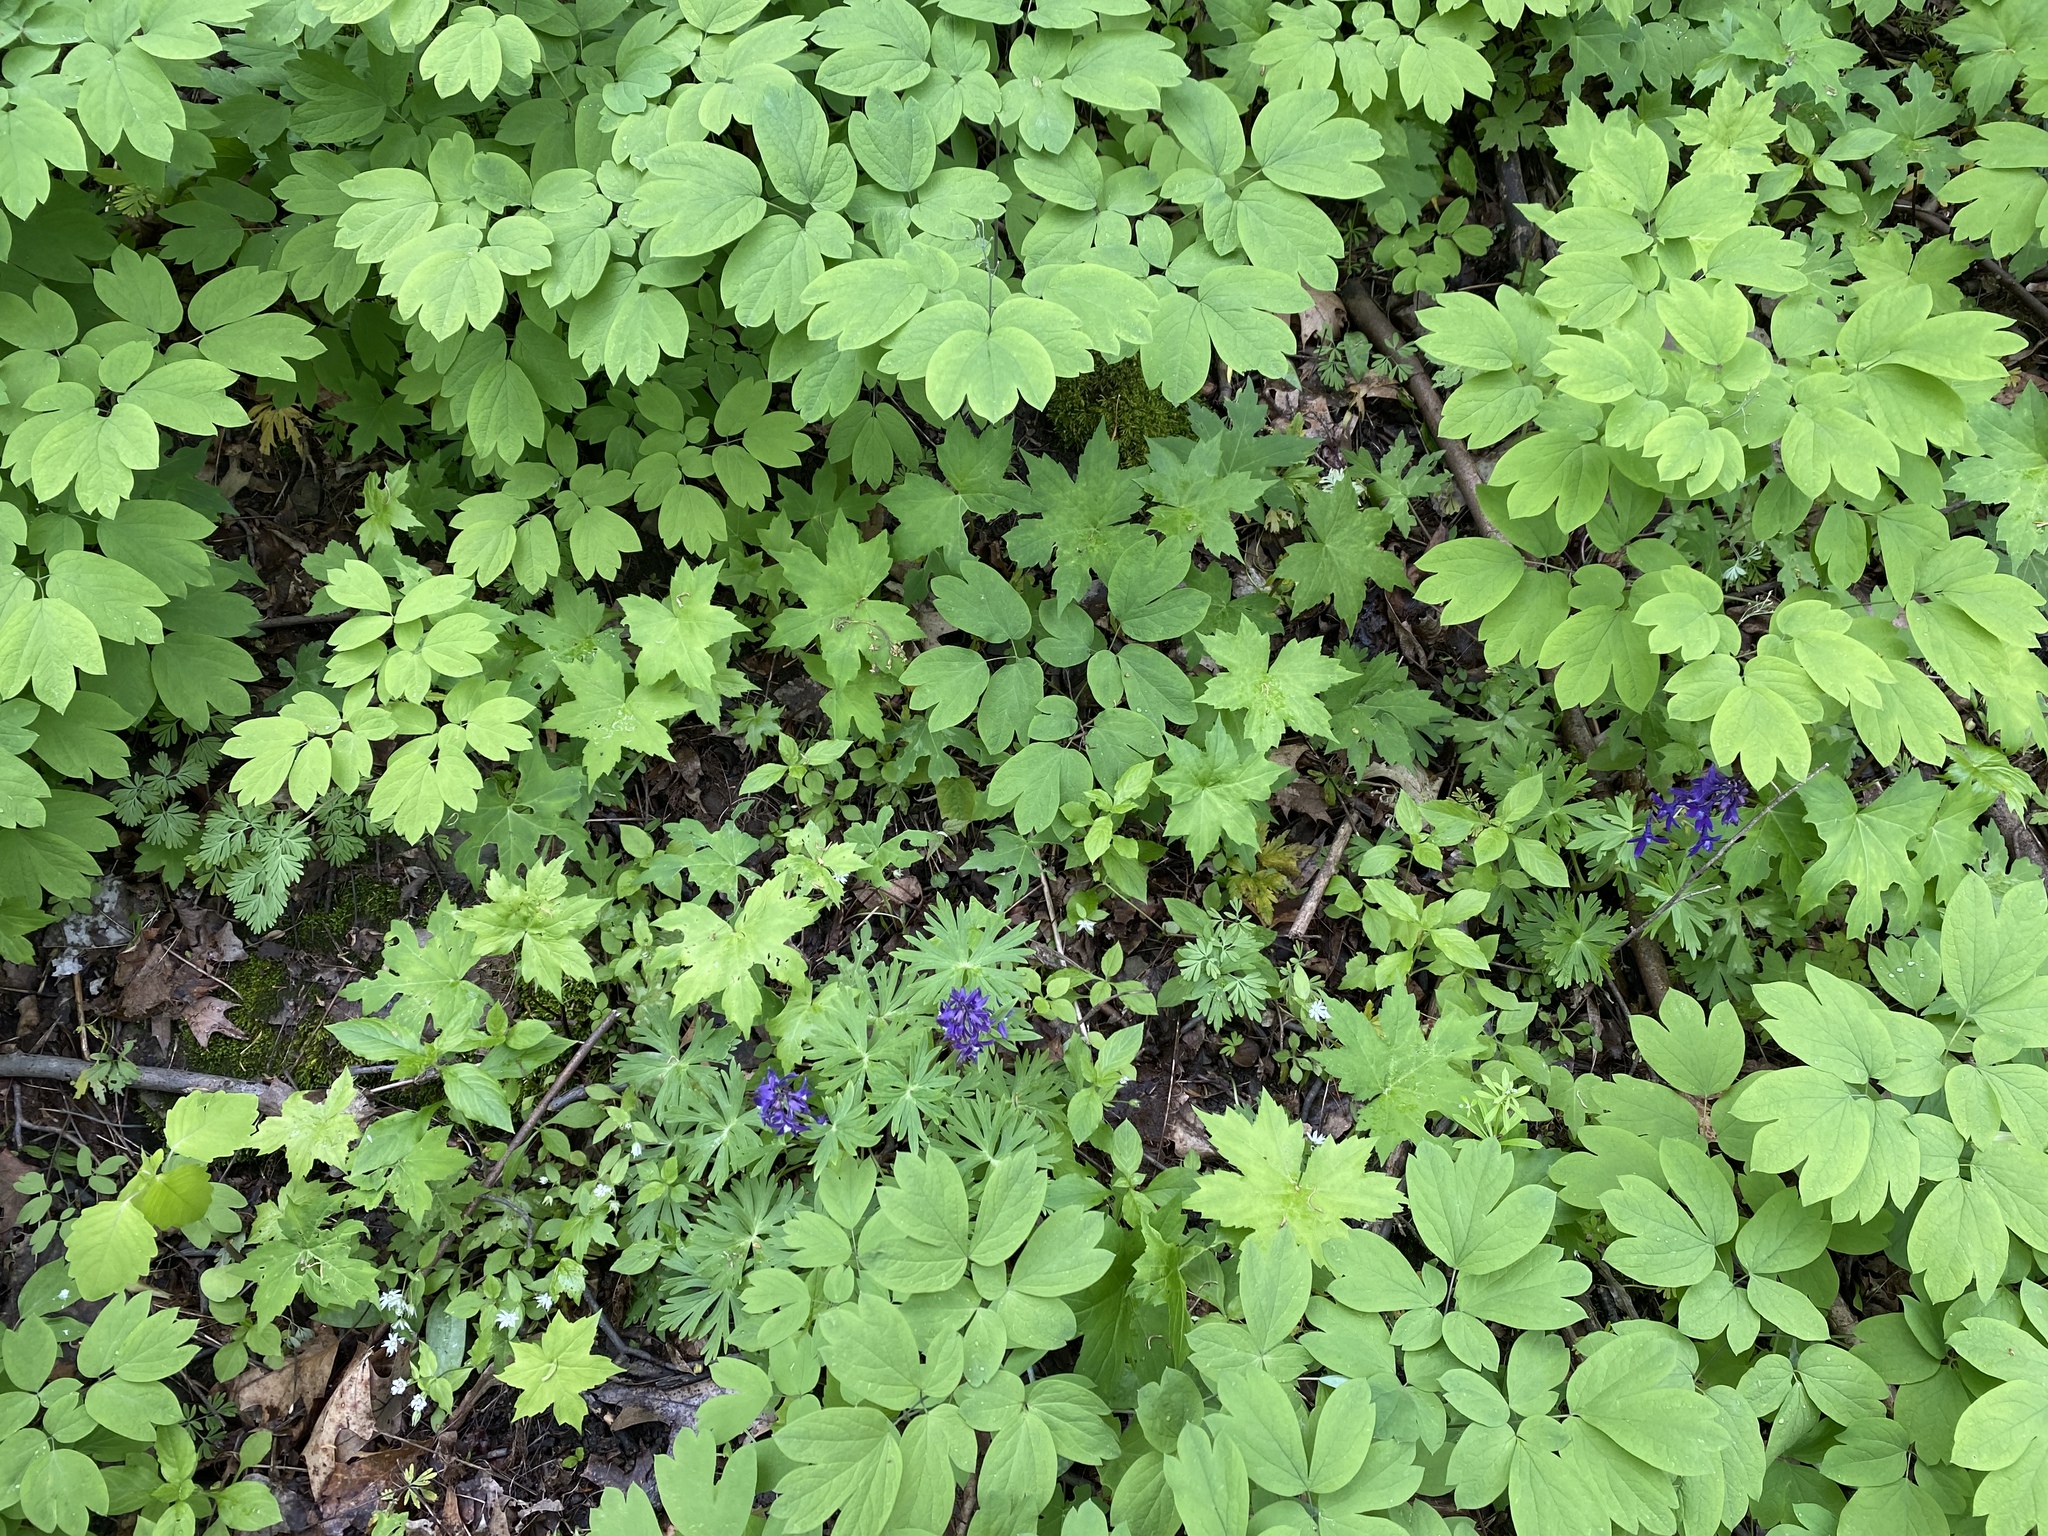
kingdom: Plantae
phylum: Tracheophyta
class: Magnoliopsida
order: Ranunculales
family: Ranunculaceae
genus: Delphinium
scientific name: Delphinium tricorne
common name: Dwarf larkspur
